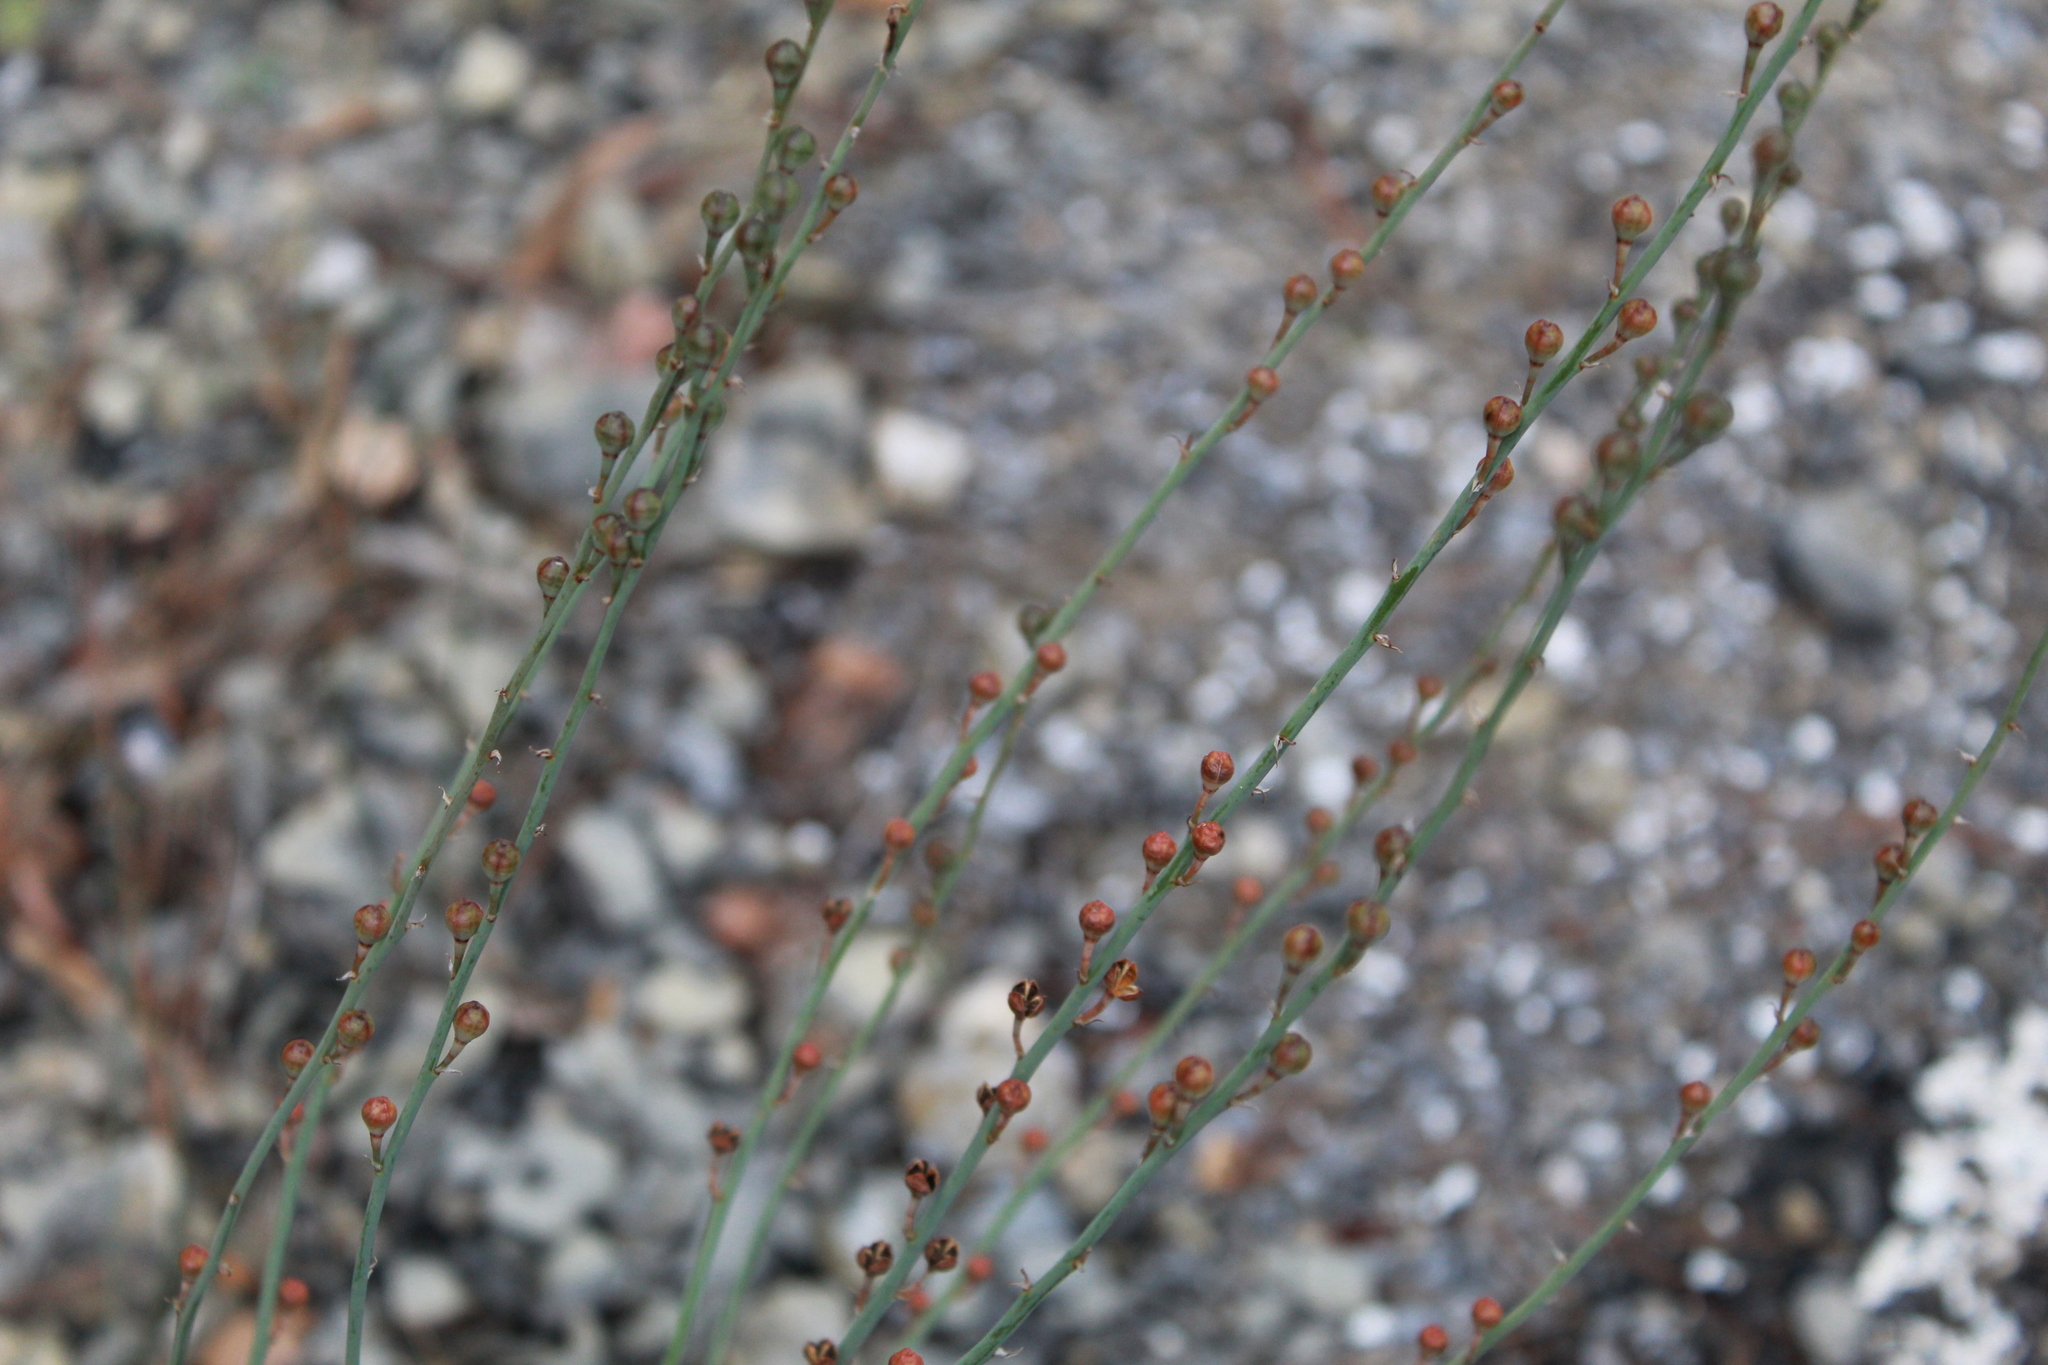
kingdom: Plantae
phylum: Tracheophyta
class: Liliopsida
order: Asparagales
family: Asphodelaceae
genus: Asphodelus
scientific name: Asphodelus fistulosus
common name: Onionweed
